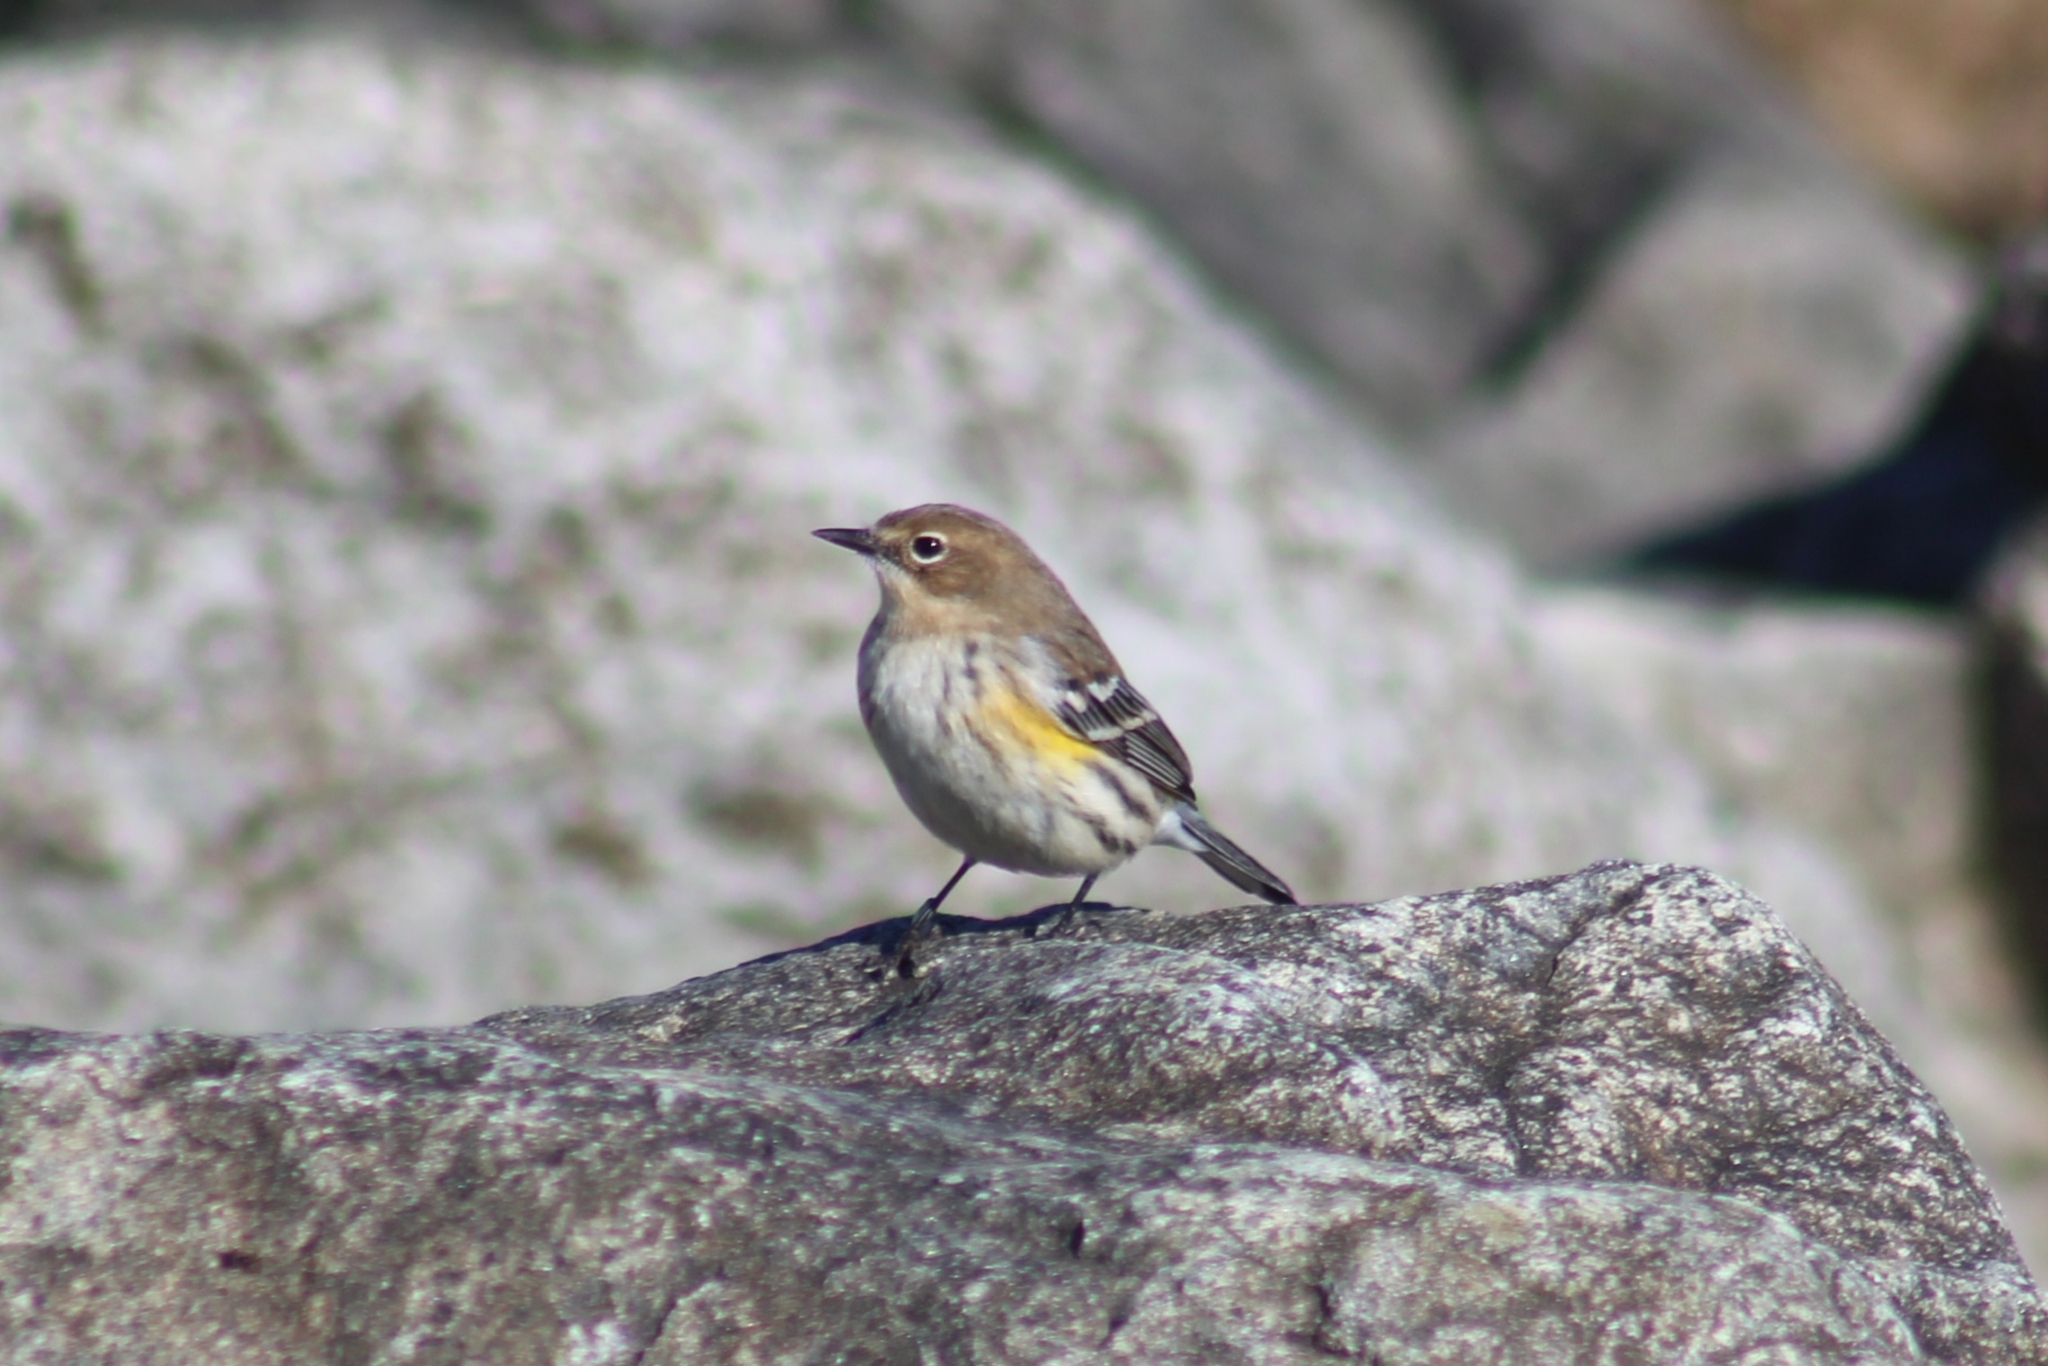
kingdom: Animalia
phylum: Chordata
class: Aves
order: Passeriformes
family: Parulidae
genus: Setophaga
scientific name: Setophaga coronata
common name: Myrtle warbler
